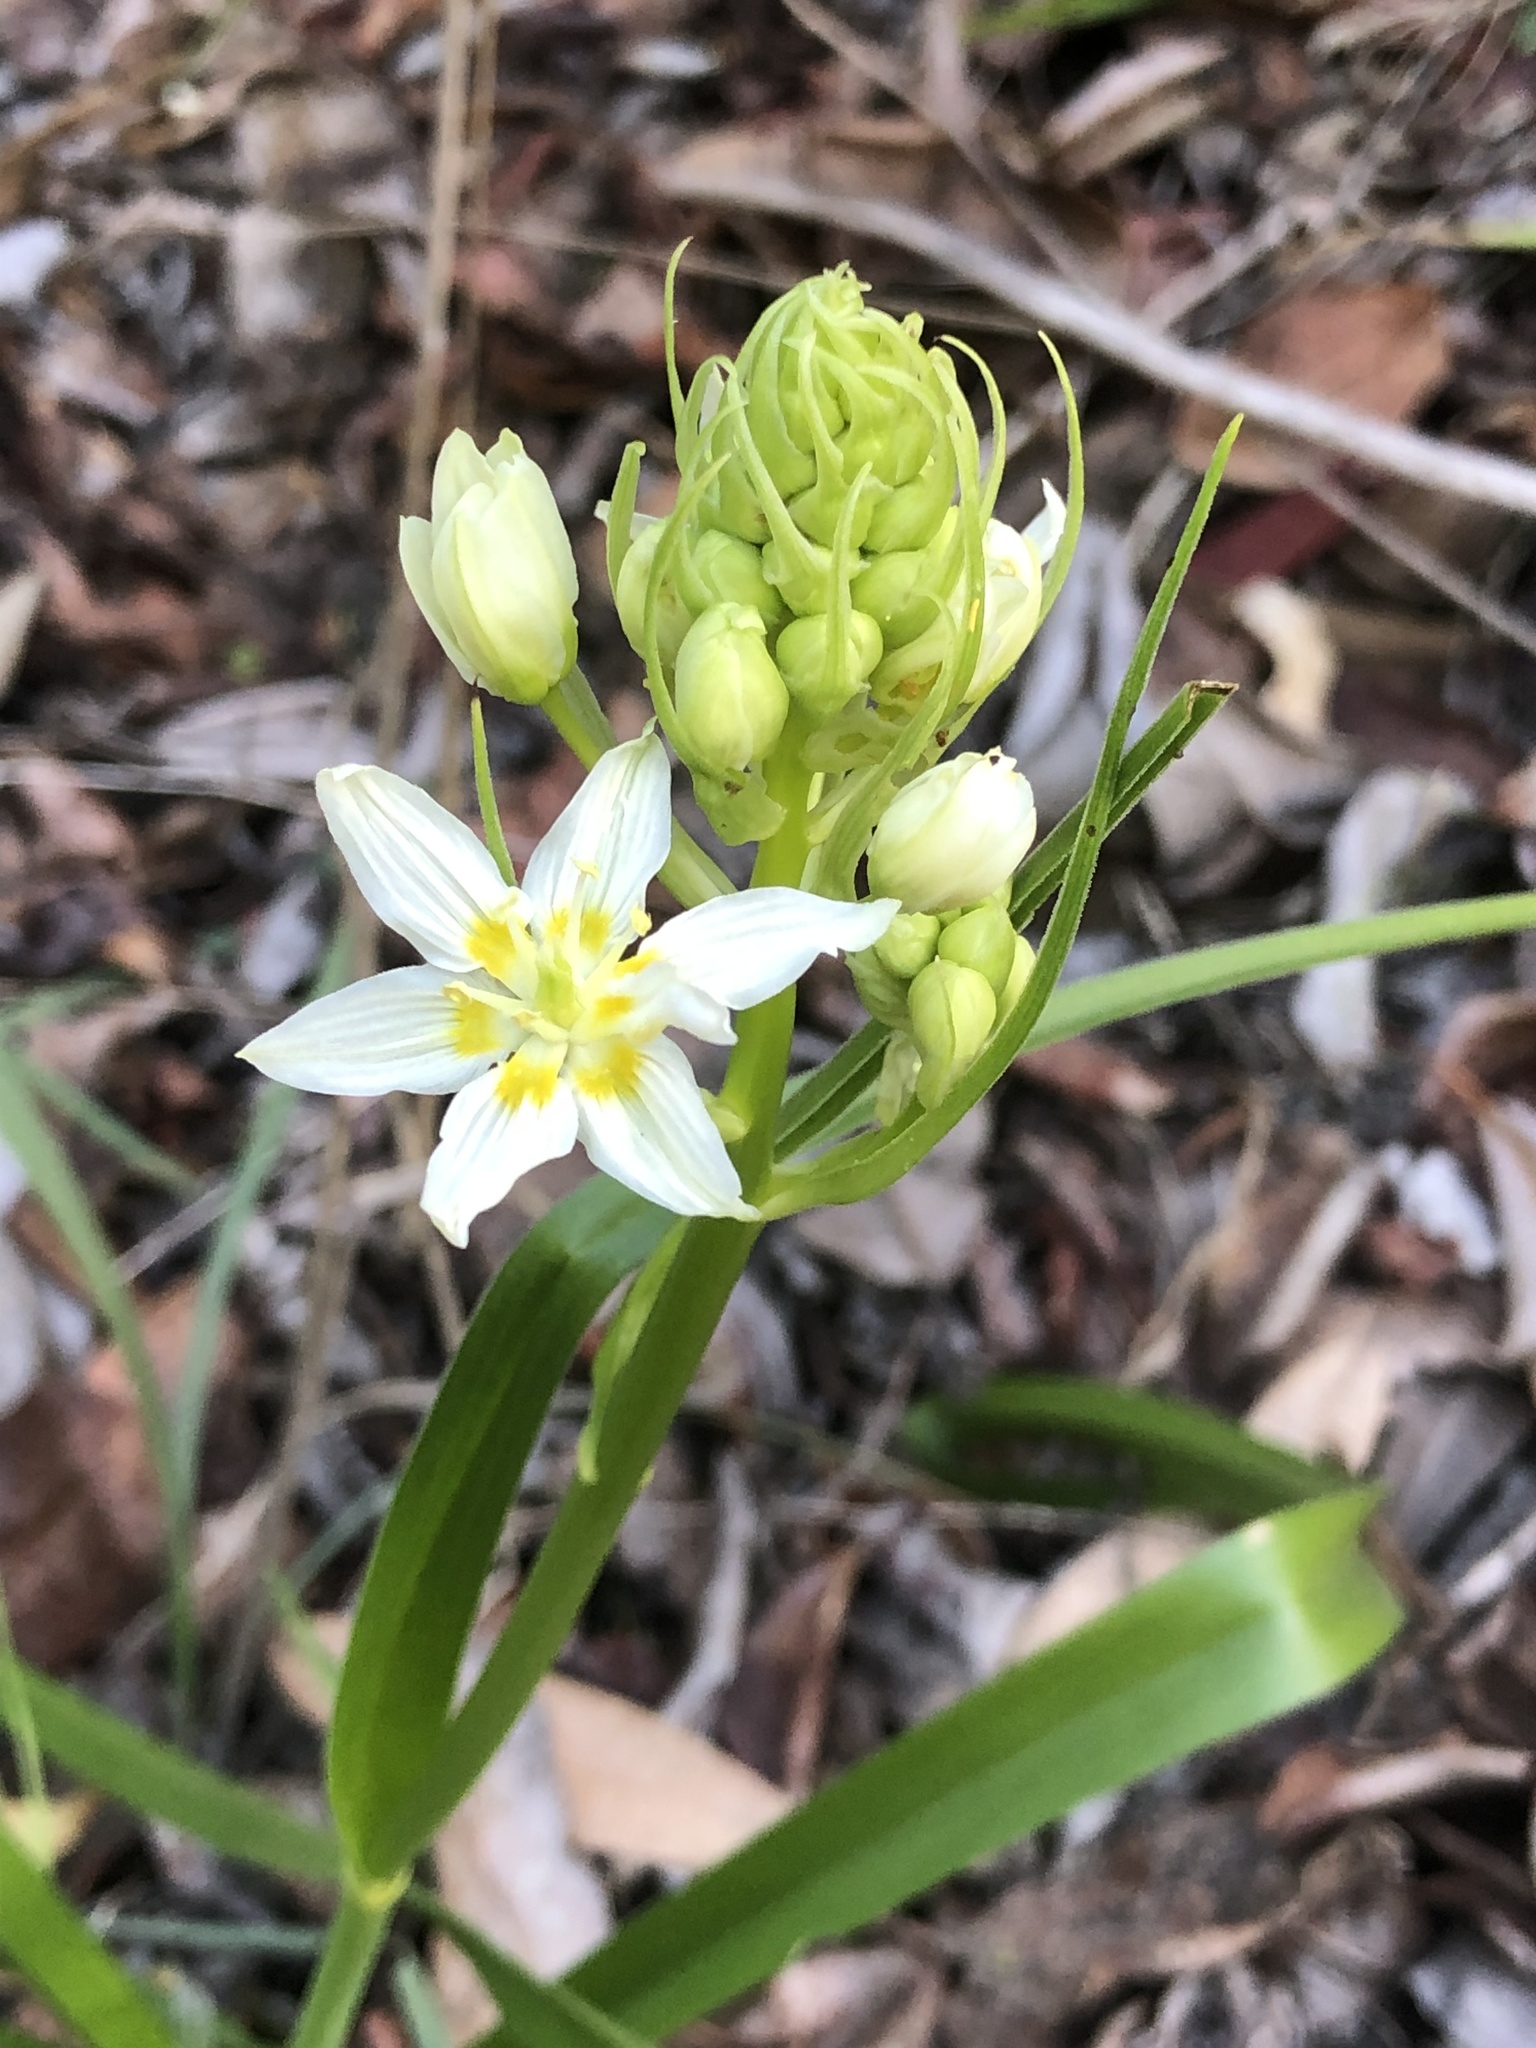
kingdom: Plantae
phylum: Tracheophyta
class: Liliopsida
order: Liliales
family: Melanthiaceae
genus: Toxicoscordion
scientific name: Toxicoscordion fremontii
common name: Fremont's death camas
